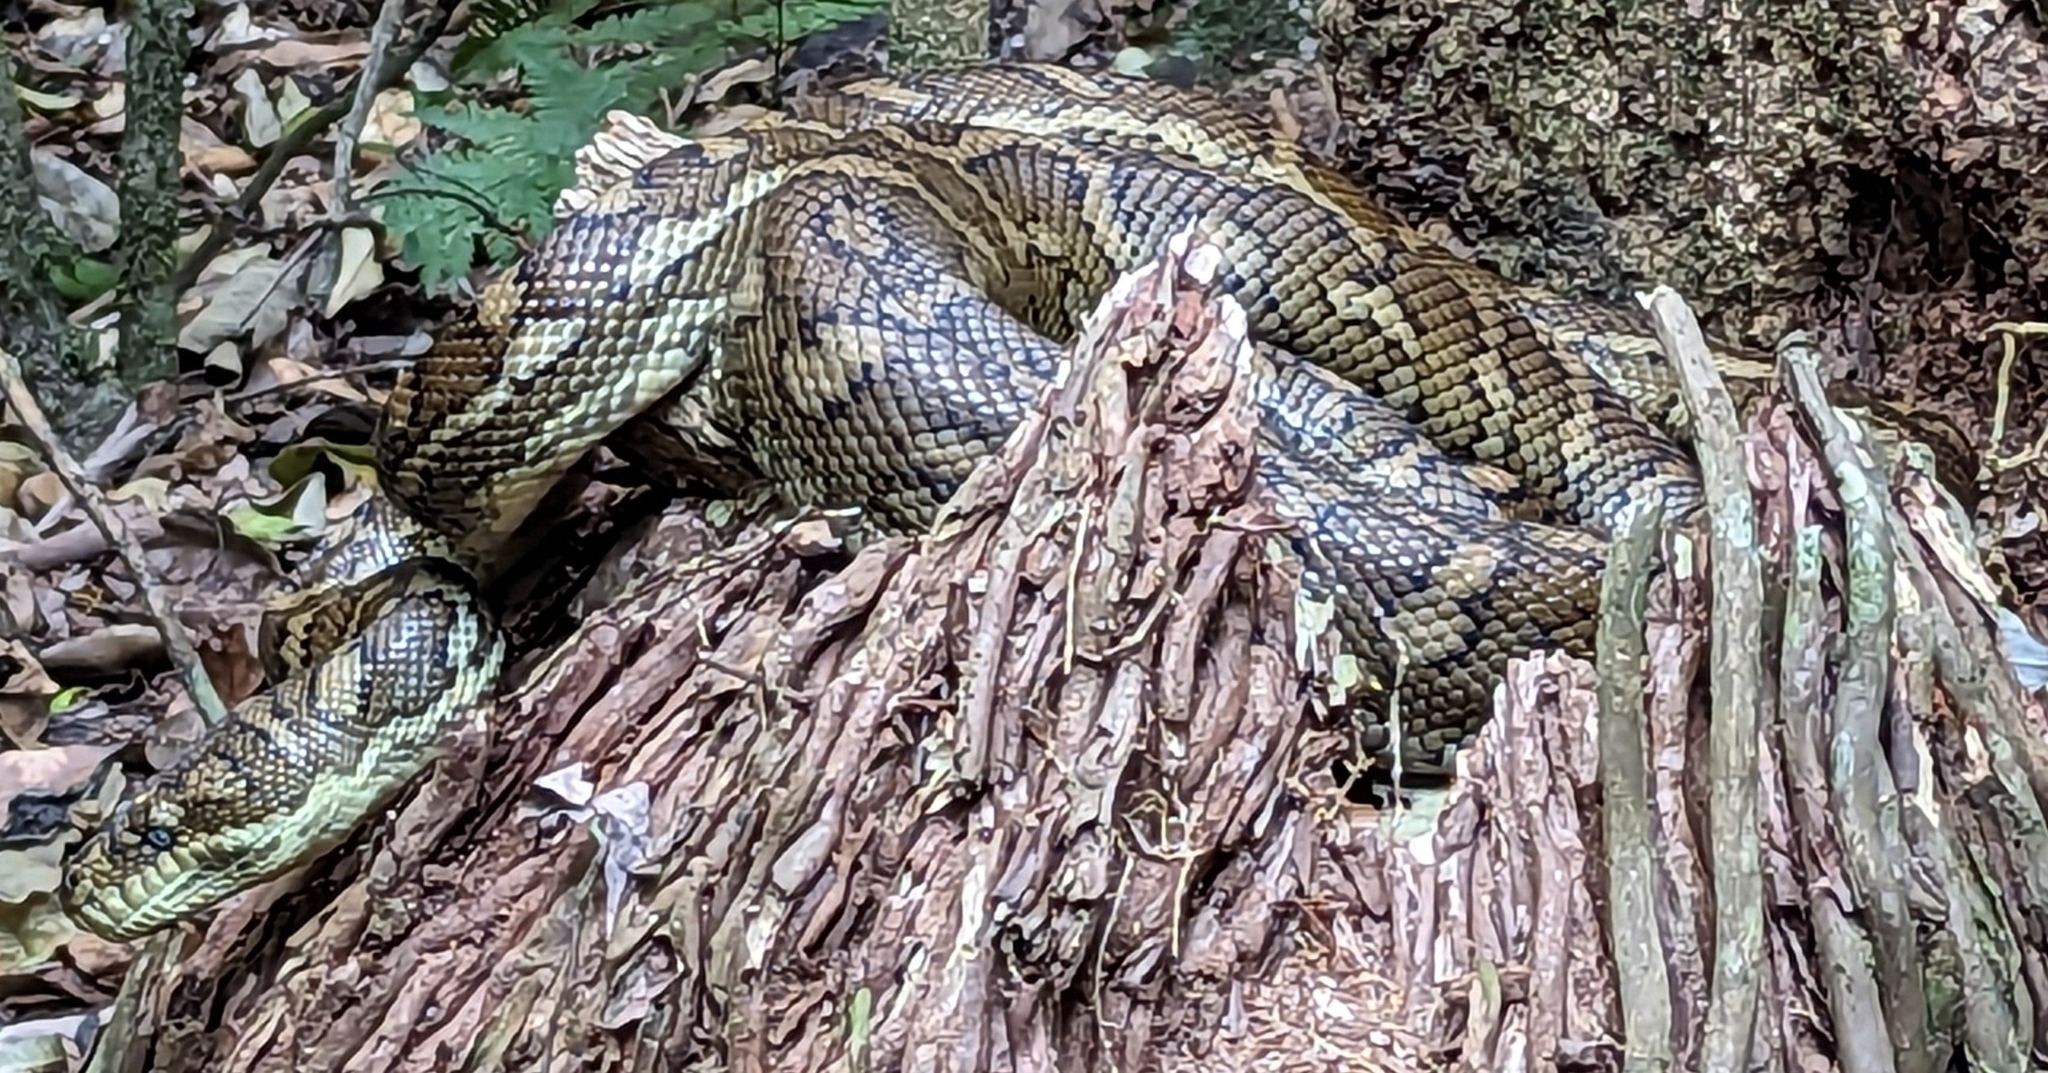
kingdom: Animalia
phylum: Chordata
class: Squamata
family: Pythonidae
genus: Morelia
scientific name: Morelia spilota
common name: Carpet python
